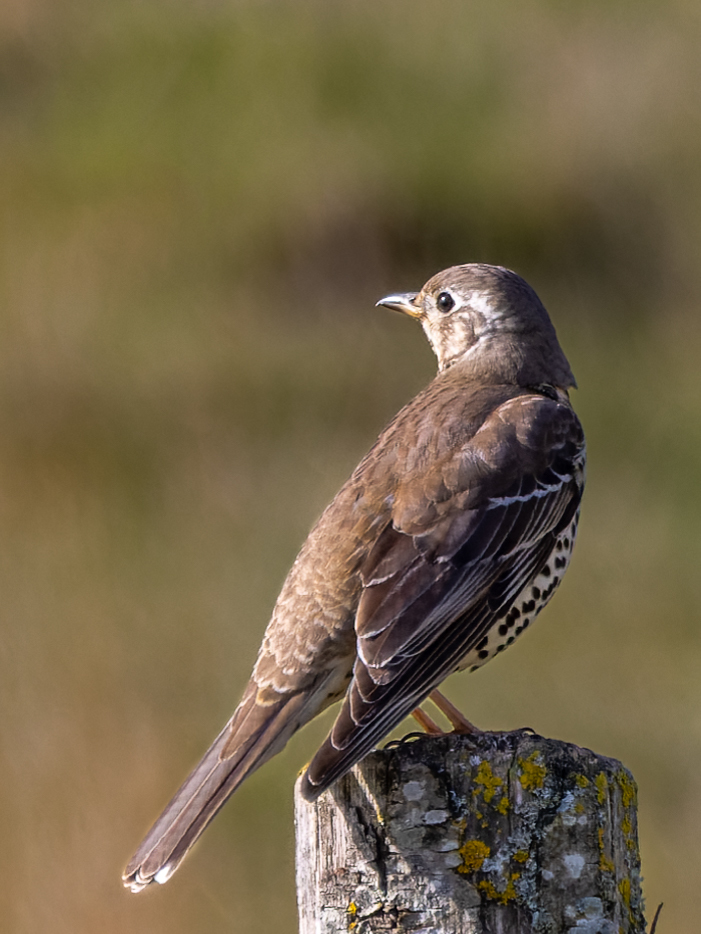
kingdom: Animalia
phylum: Chordata
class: Aves
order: Passeriformes
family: Turdidae
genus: Turdus
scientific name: Turdus viscivorus
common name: Mistle thrush
